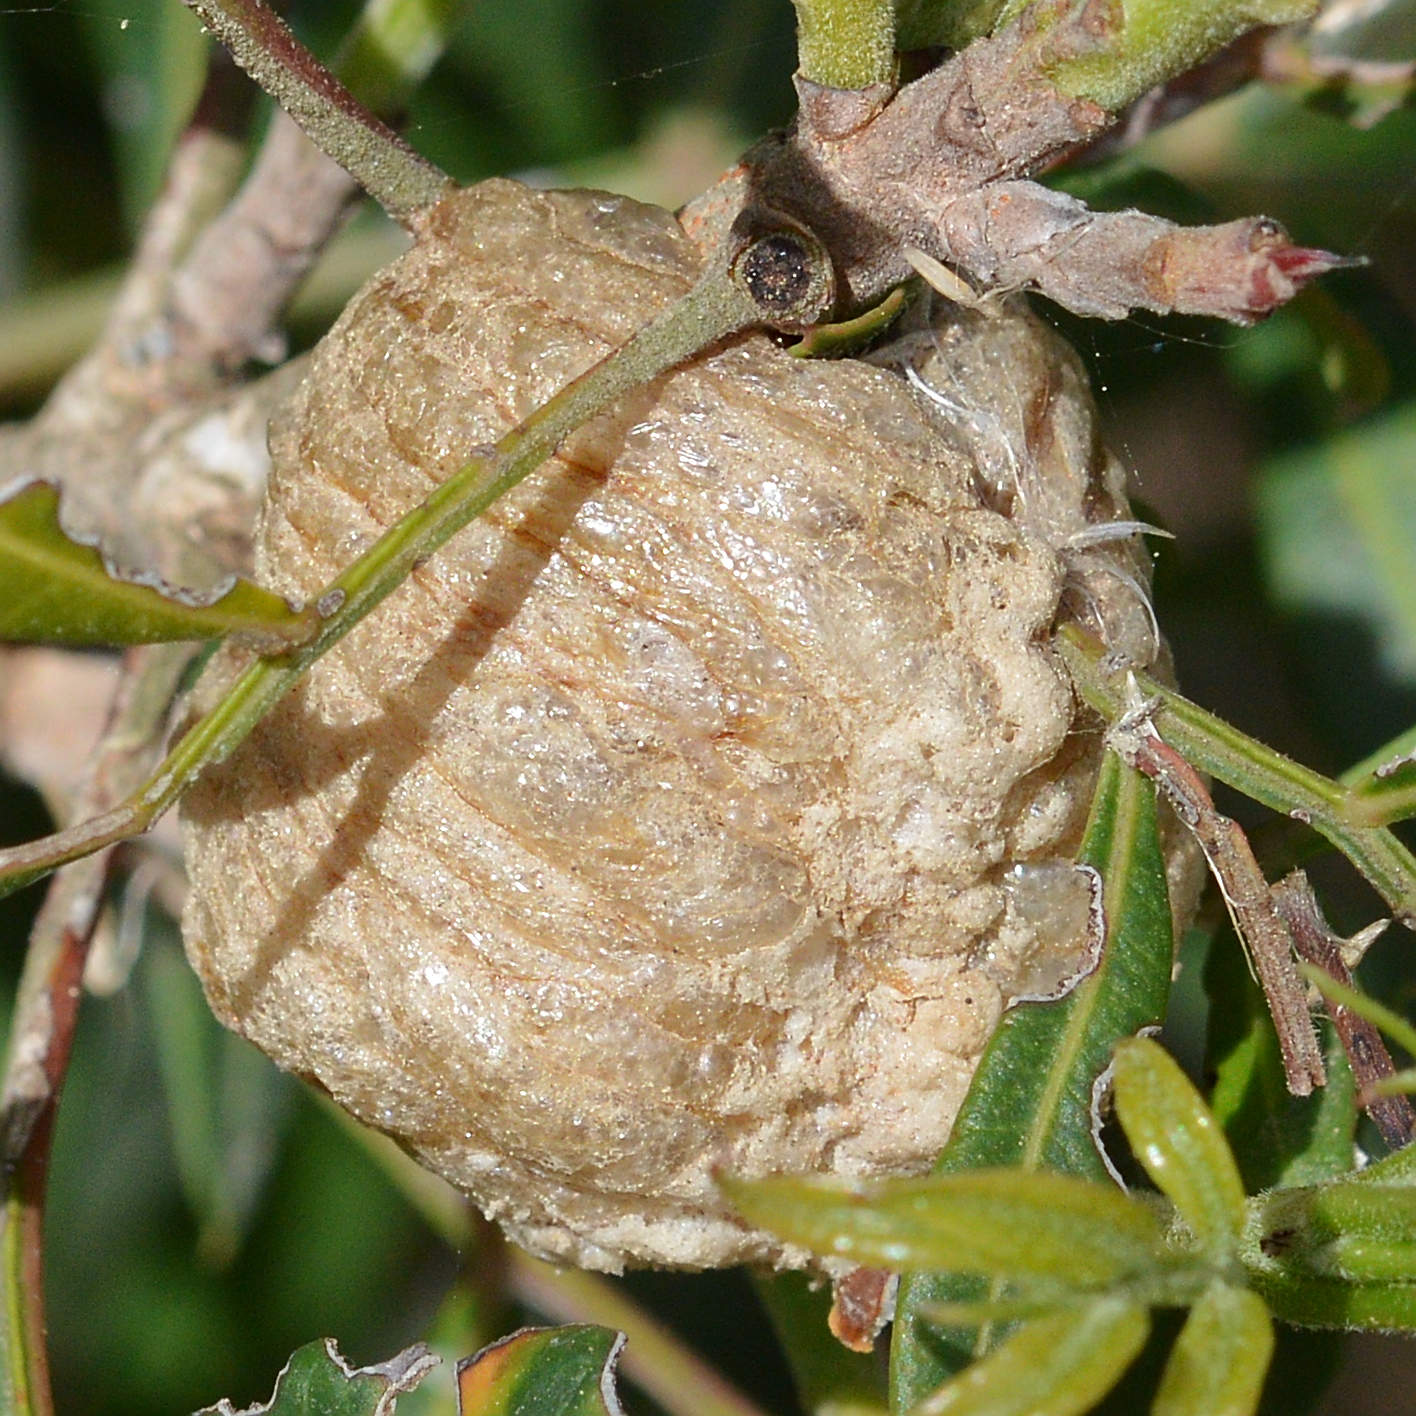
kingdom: Animalia
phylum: Arthropoda
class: Insecta
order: Mantodea
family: Mantidae
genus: Sphodromantis
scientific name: Sphodromantis viridis
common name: Giant african mantis
